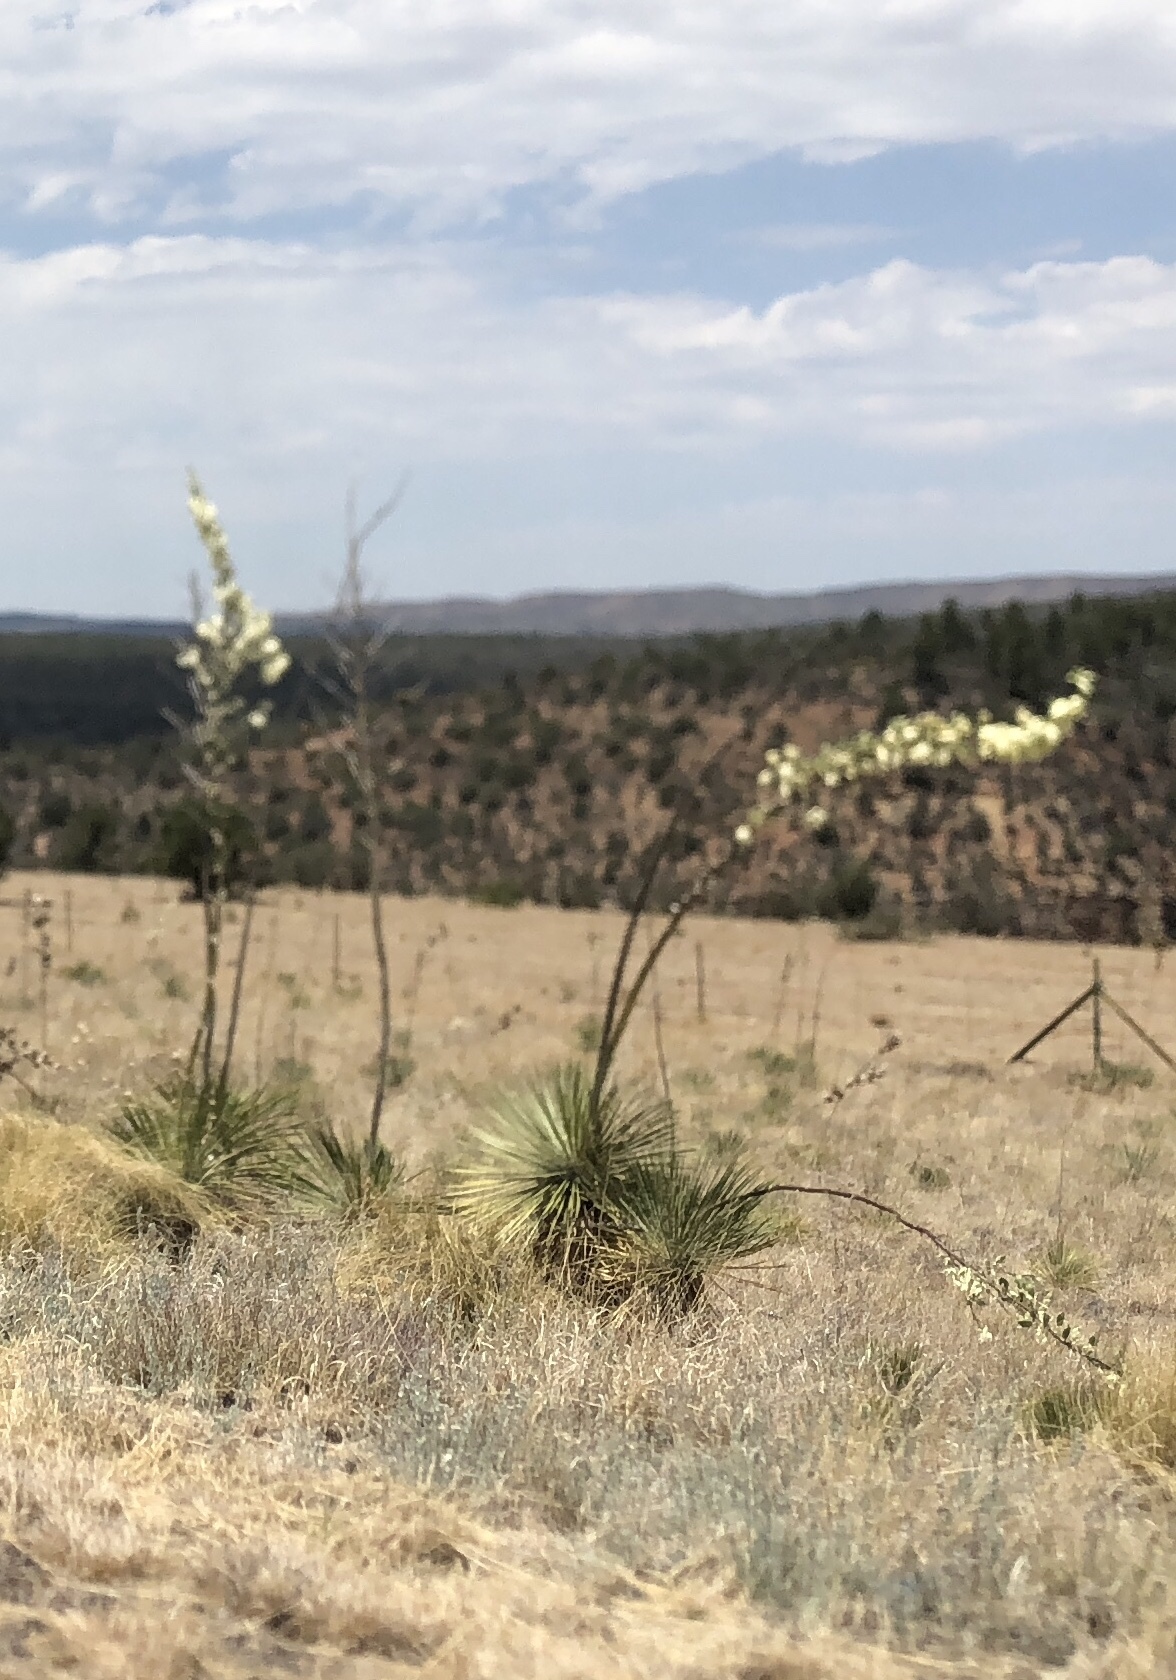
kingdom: Plantae
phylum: Tracheophyta
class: Liliopsida
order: Asparagales
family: Asparagaceae
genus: Yucca
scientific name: Yucca elata
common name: Palmella
